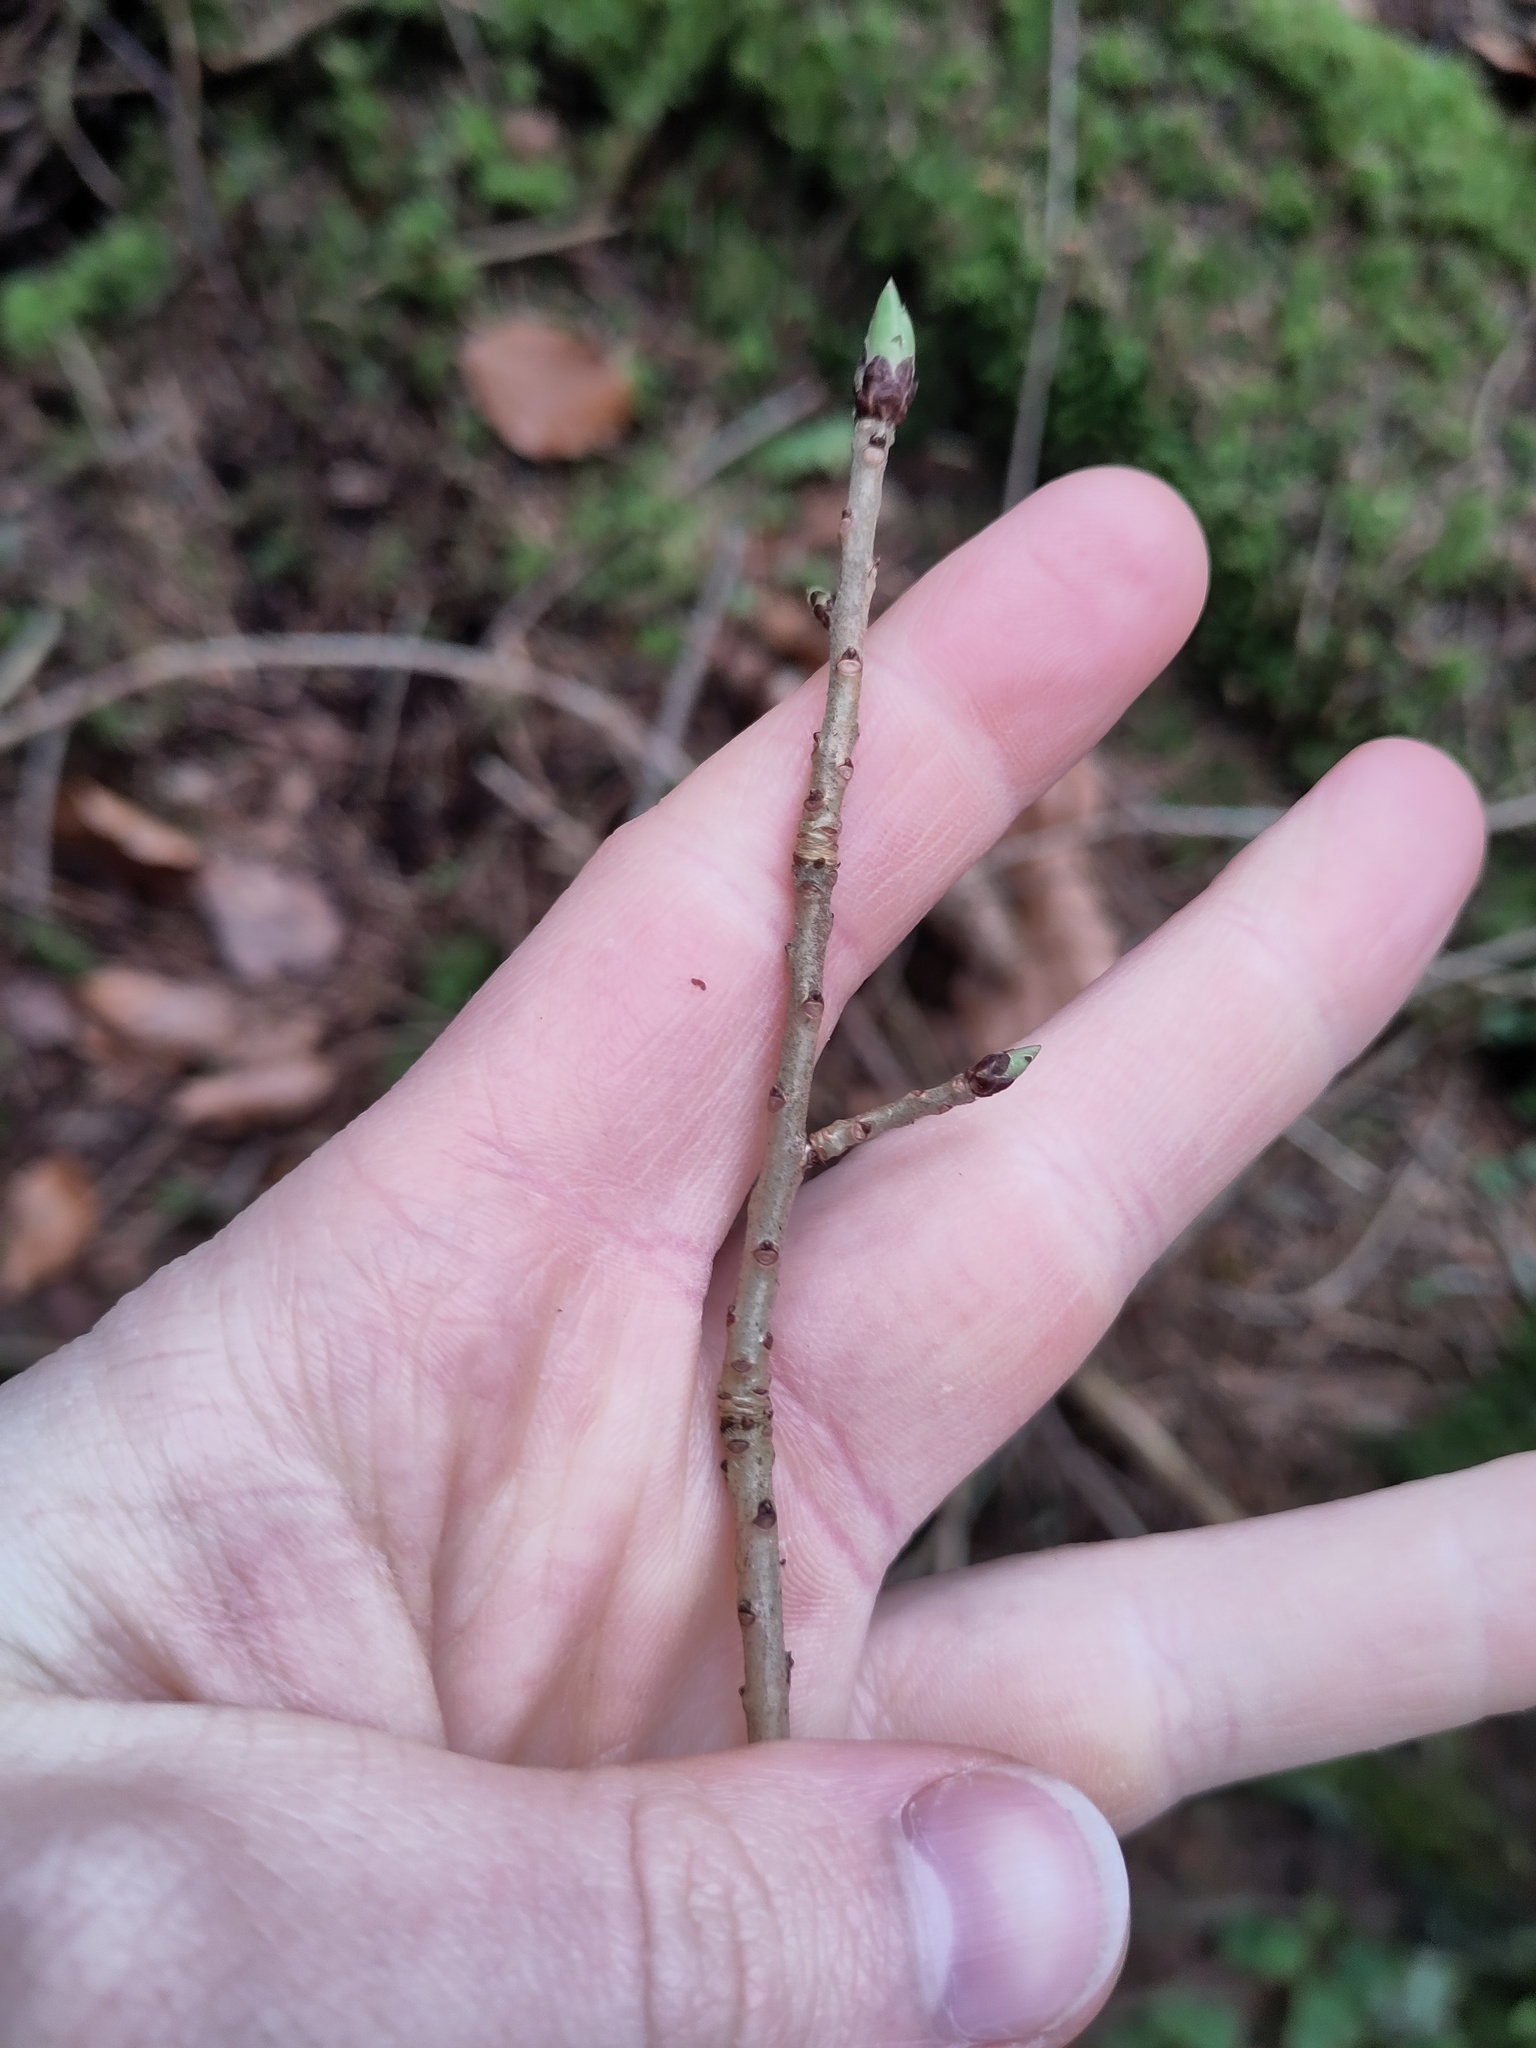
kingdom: Plantae
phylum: Tracheophyta
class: Magnoliopsida
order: Malvales
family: Thymelaeaceae
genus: Daphne
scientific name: Daphne mezereum
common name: Mezereon
